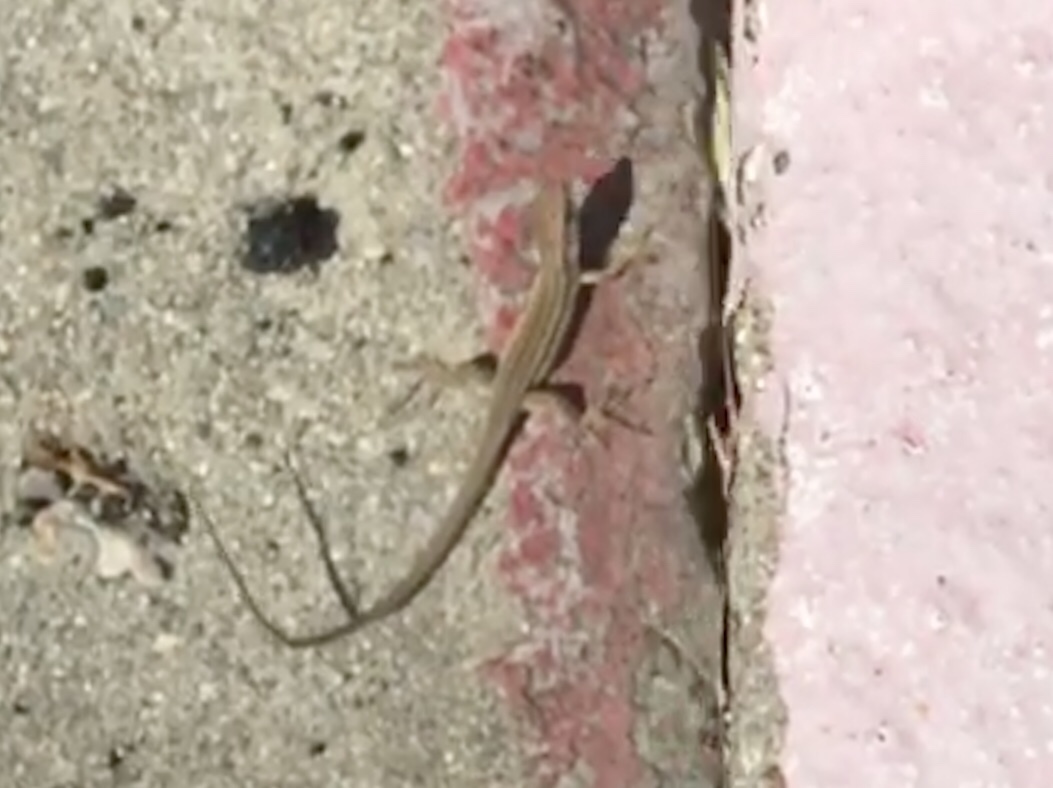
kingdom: Animalia
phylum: Chordata
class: Squamata
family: Lacertidae
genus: Podarcis
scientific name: Podarcis siculus
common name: Italian wall lizard
